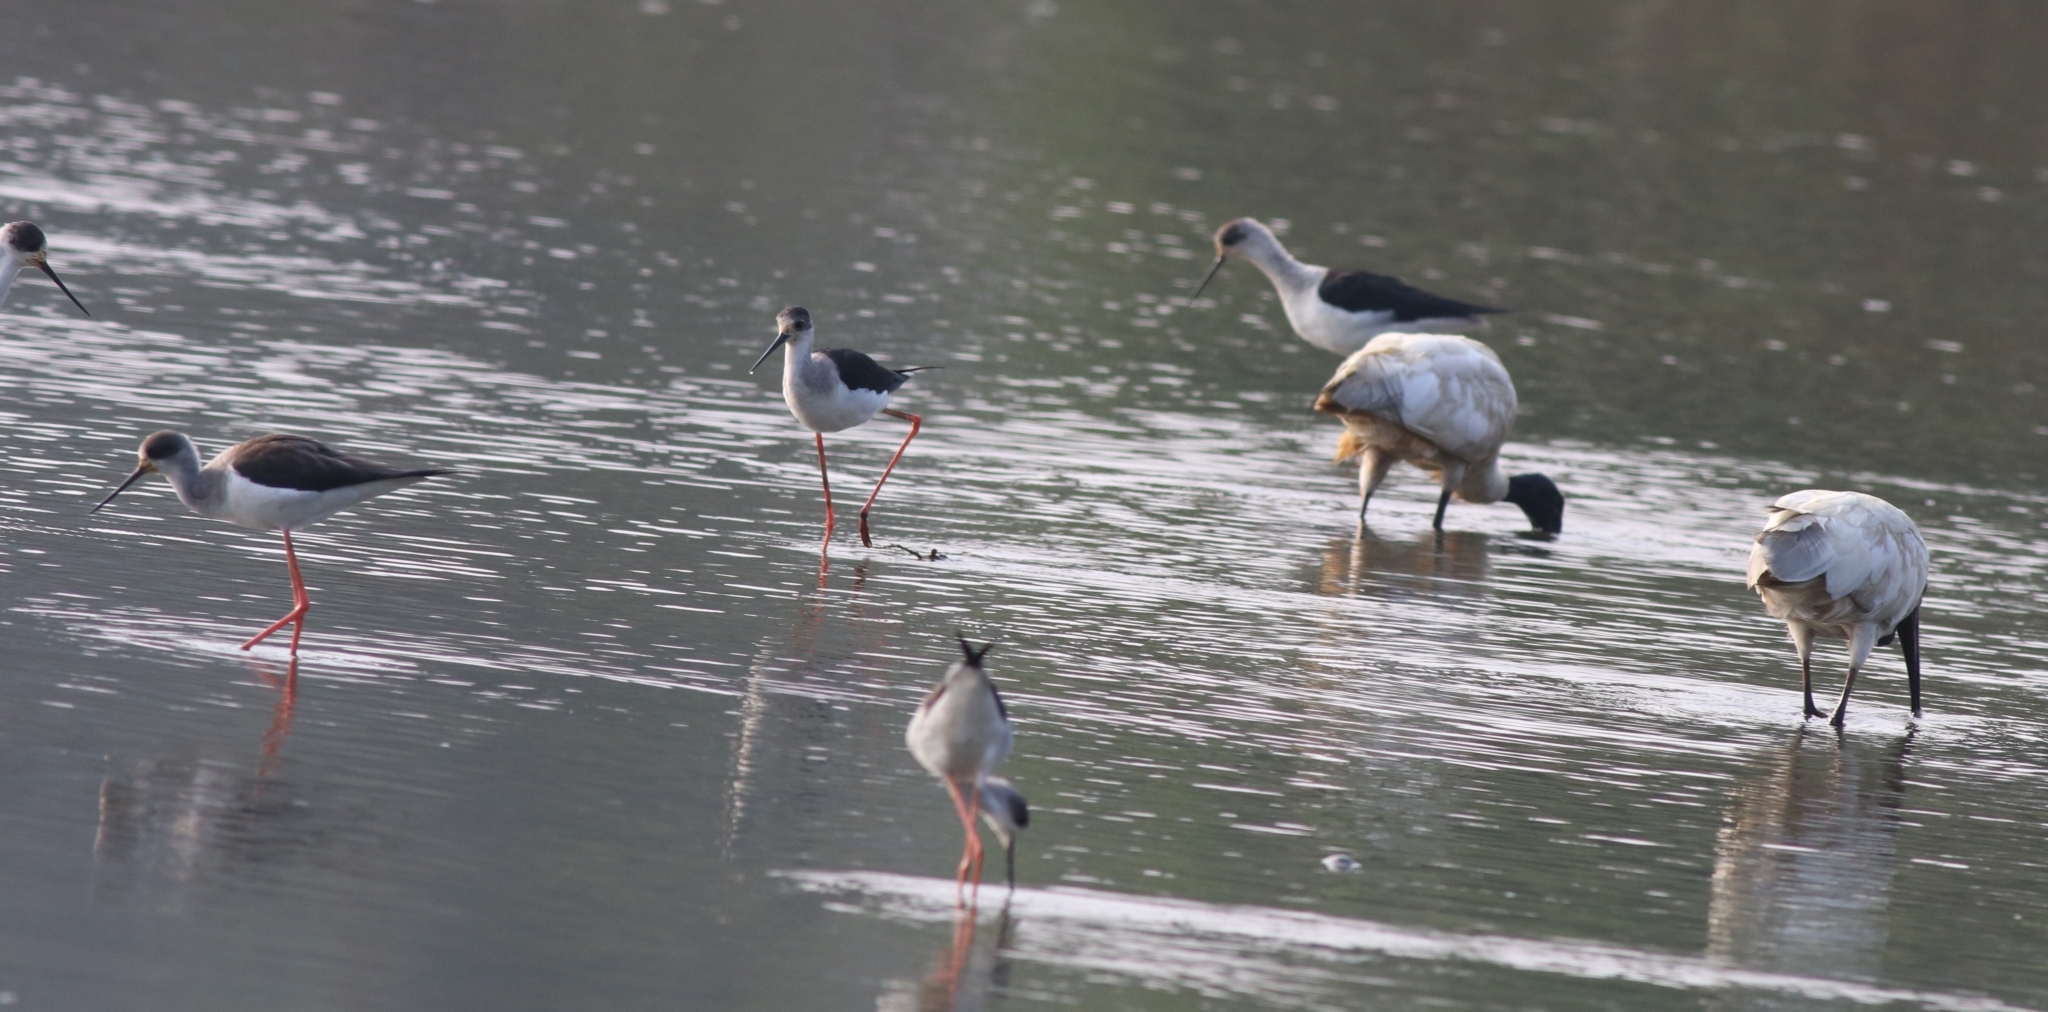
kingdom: Animalia
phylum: Chordata
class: Aves
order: Pelecaniformes
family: Threskiornithidae
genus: Threskiornis
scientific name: Threskiornis melanocephalus
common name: Black-headed ibis
